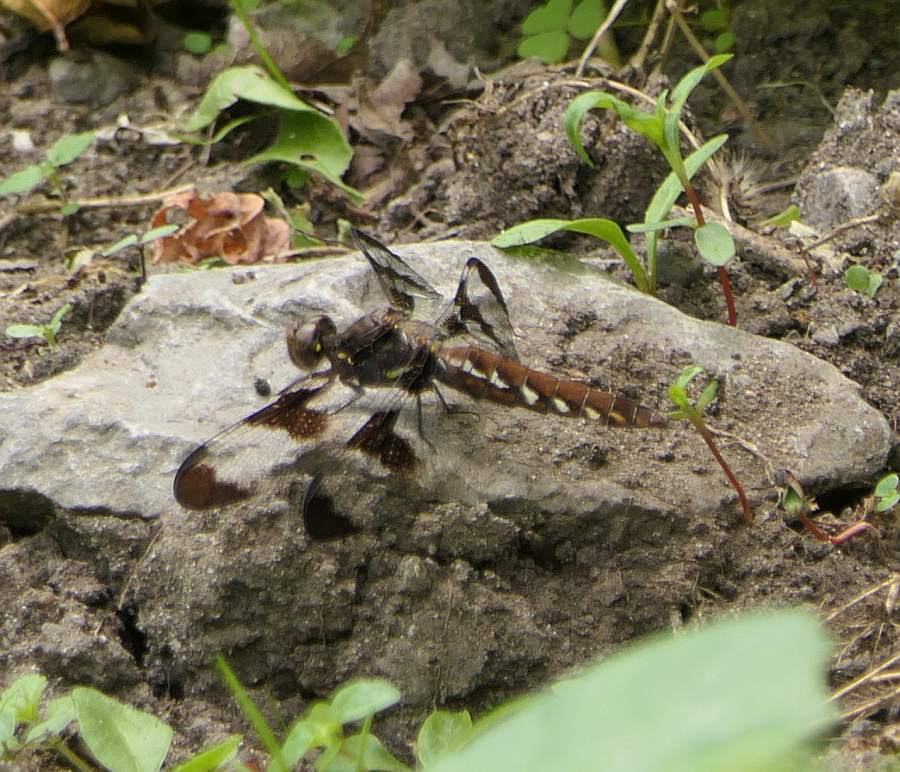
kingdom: Animalia
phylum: Arthropoda
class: Insecta
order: Odonata
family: Libellulidae
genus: Plathemis
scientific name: Plathemis lydia
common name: Common whitetail
